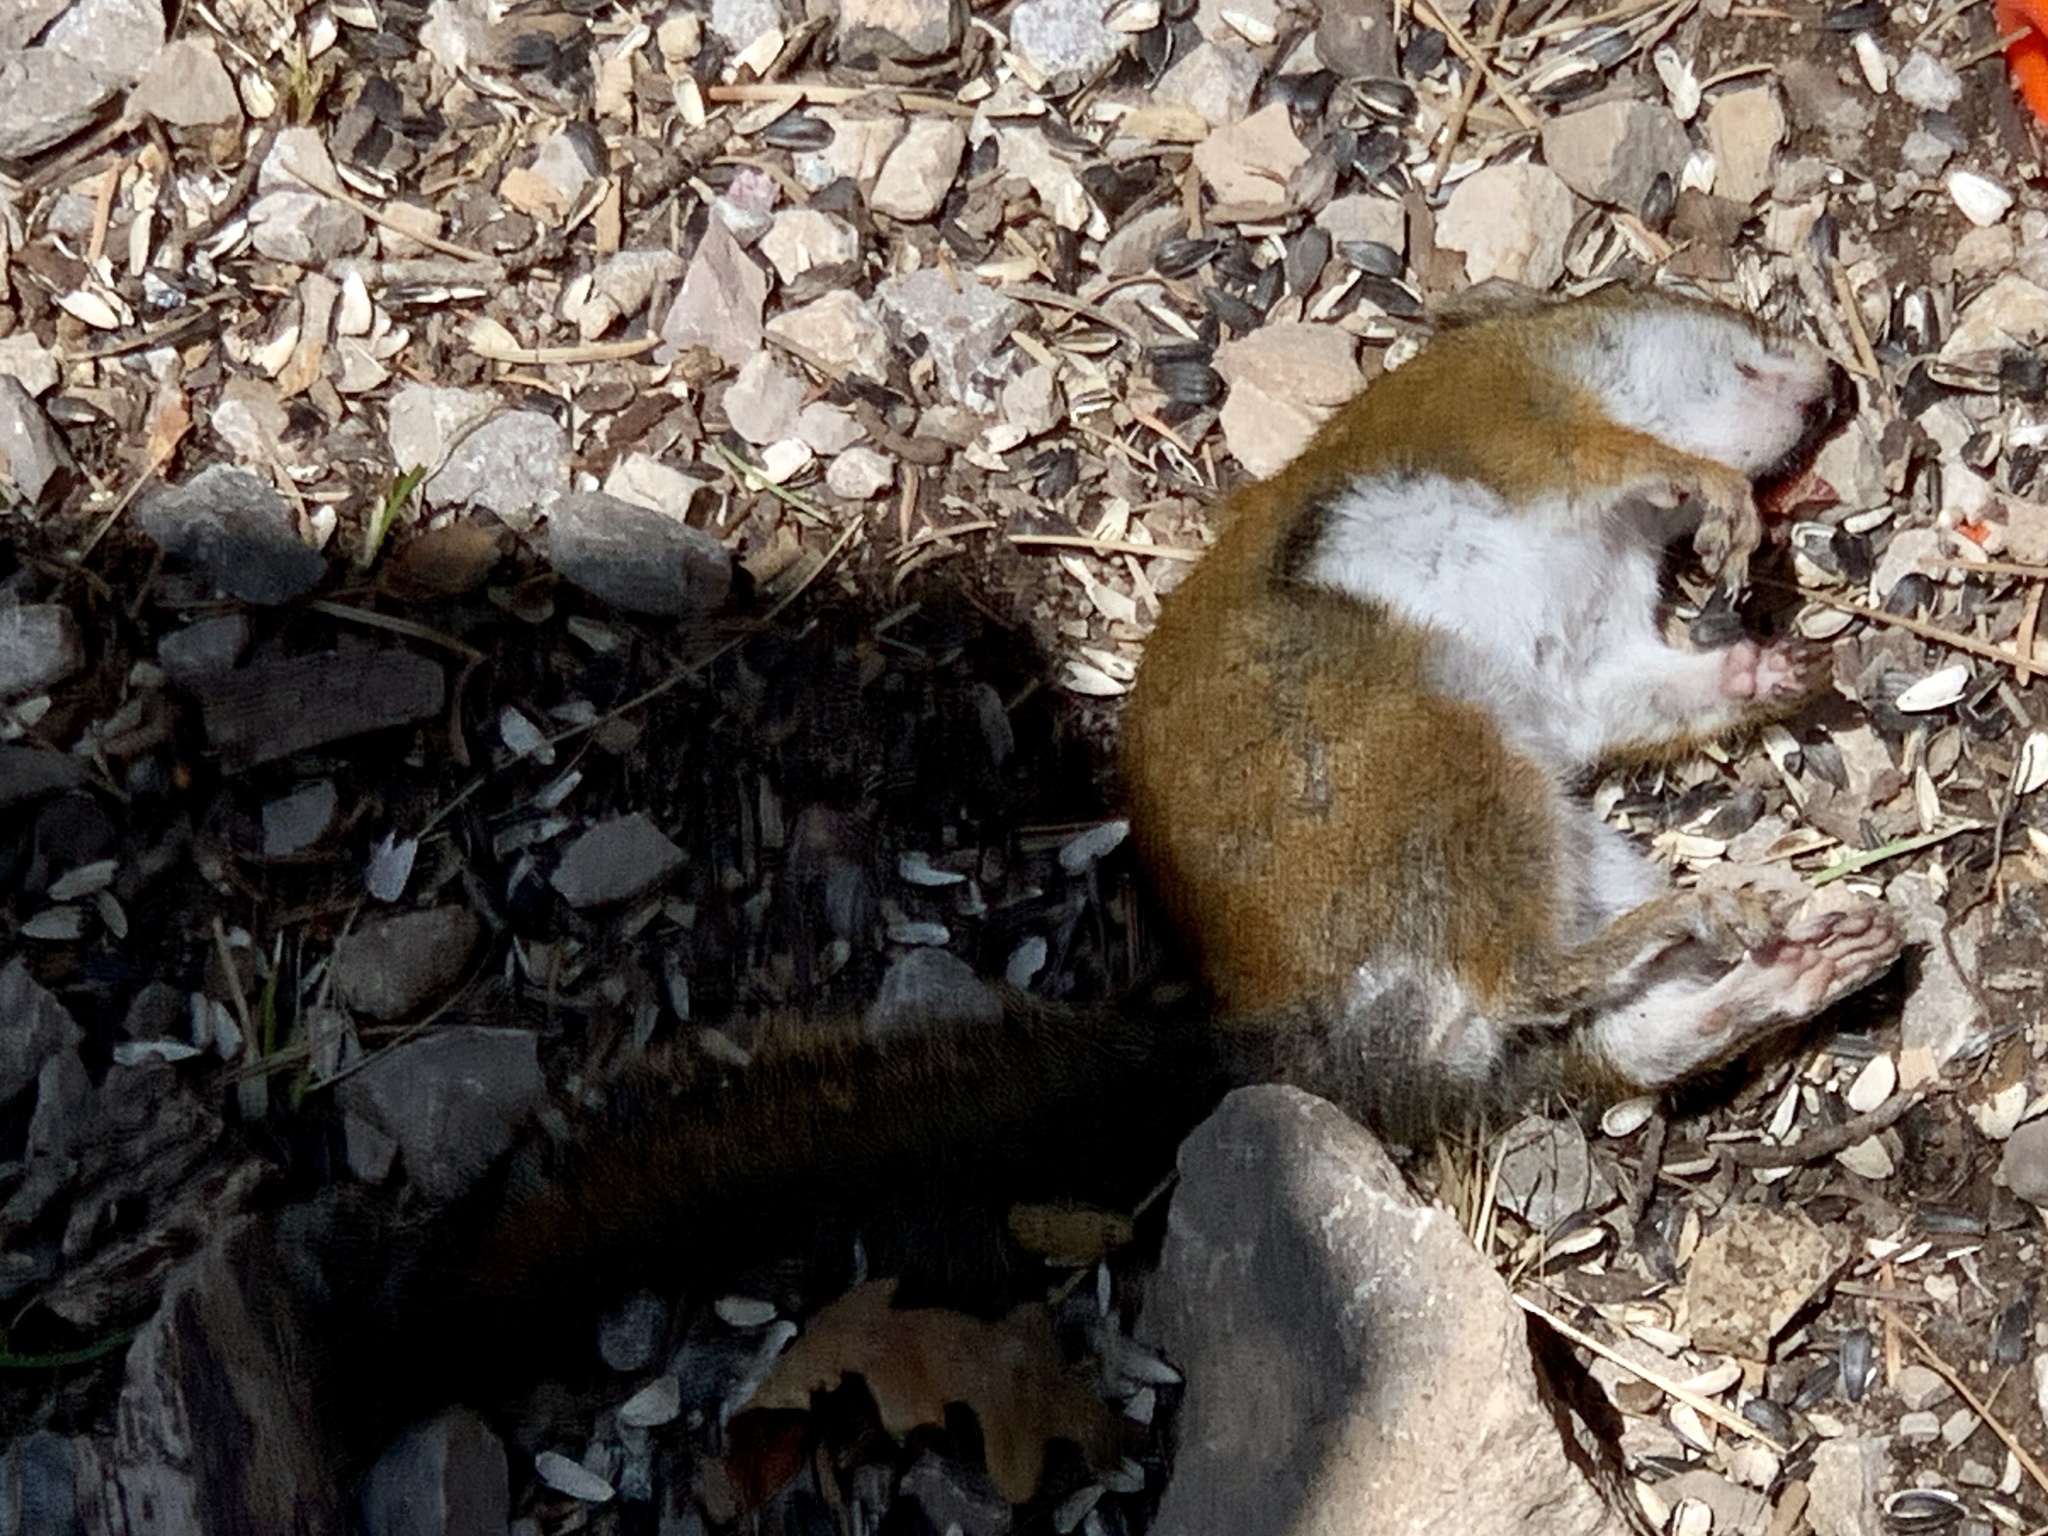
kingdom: Animalia
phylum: Chordata
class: Mammalia
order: Rodentia
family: Sciuridae
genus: Tamiasciurus
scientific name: Tamiasciurus hudsonicus
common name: Red squirrel
